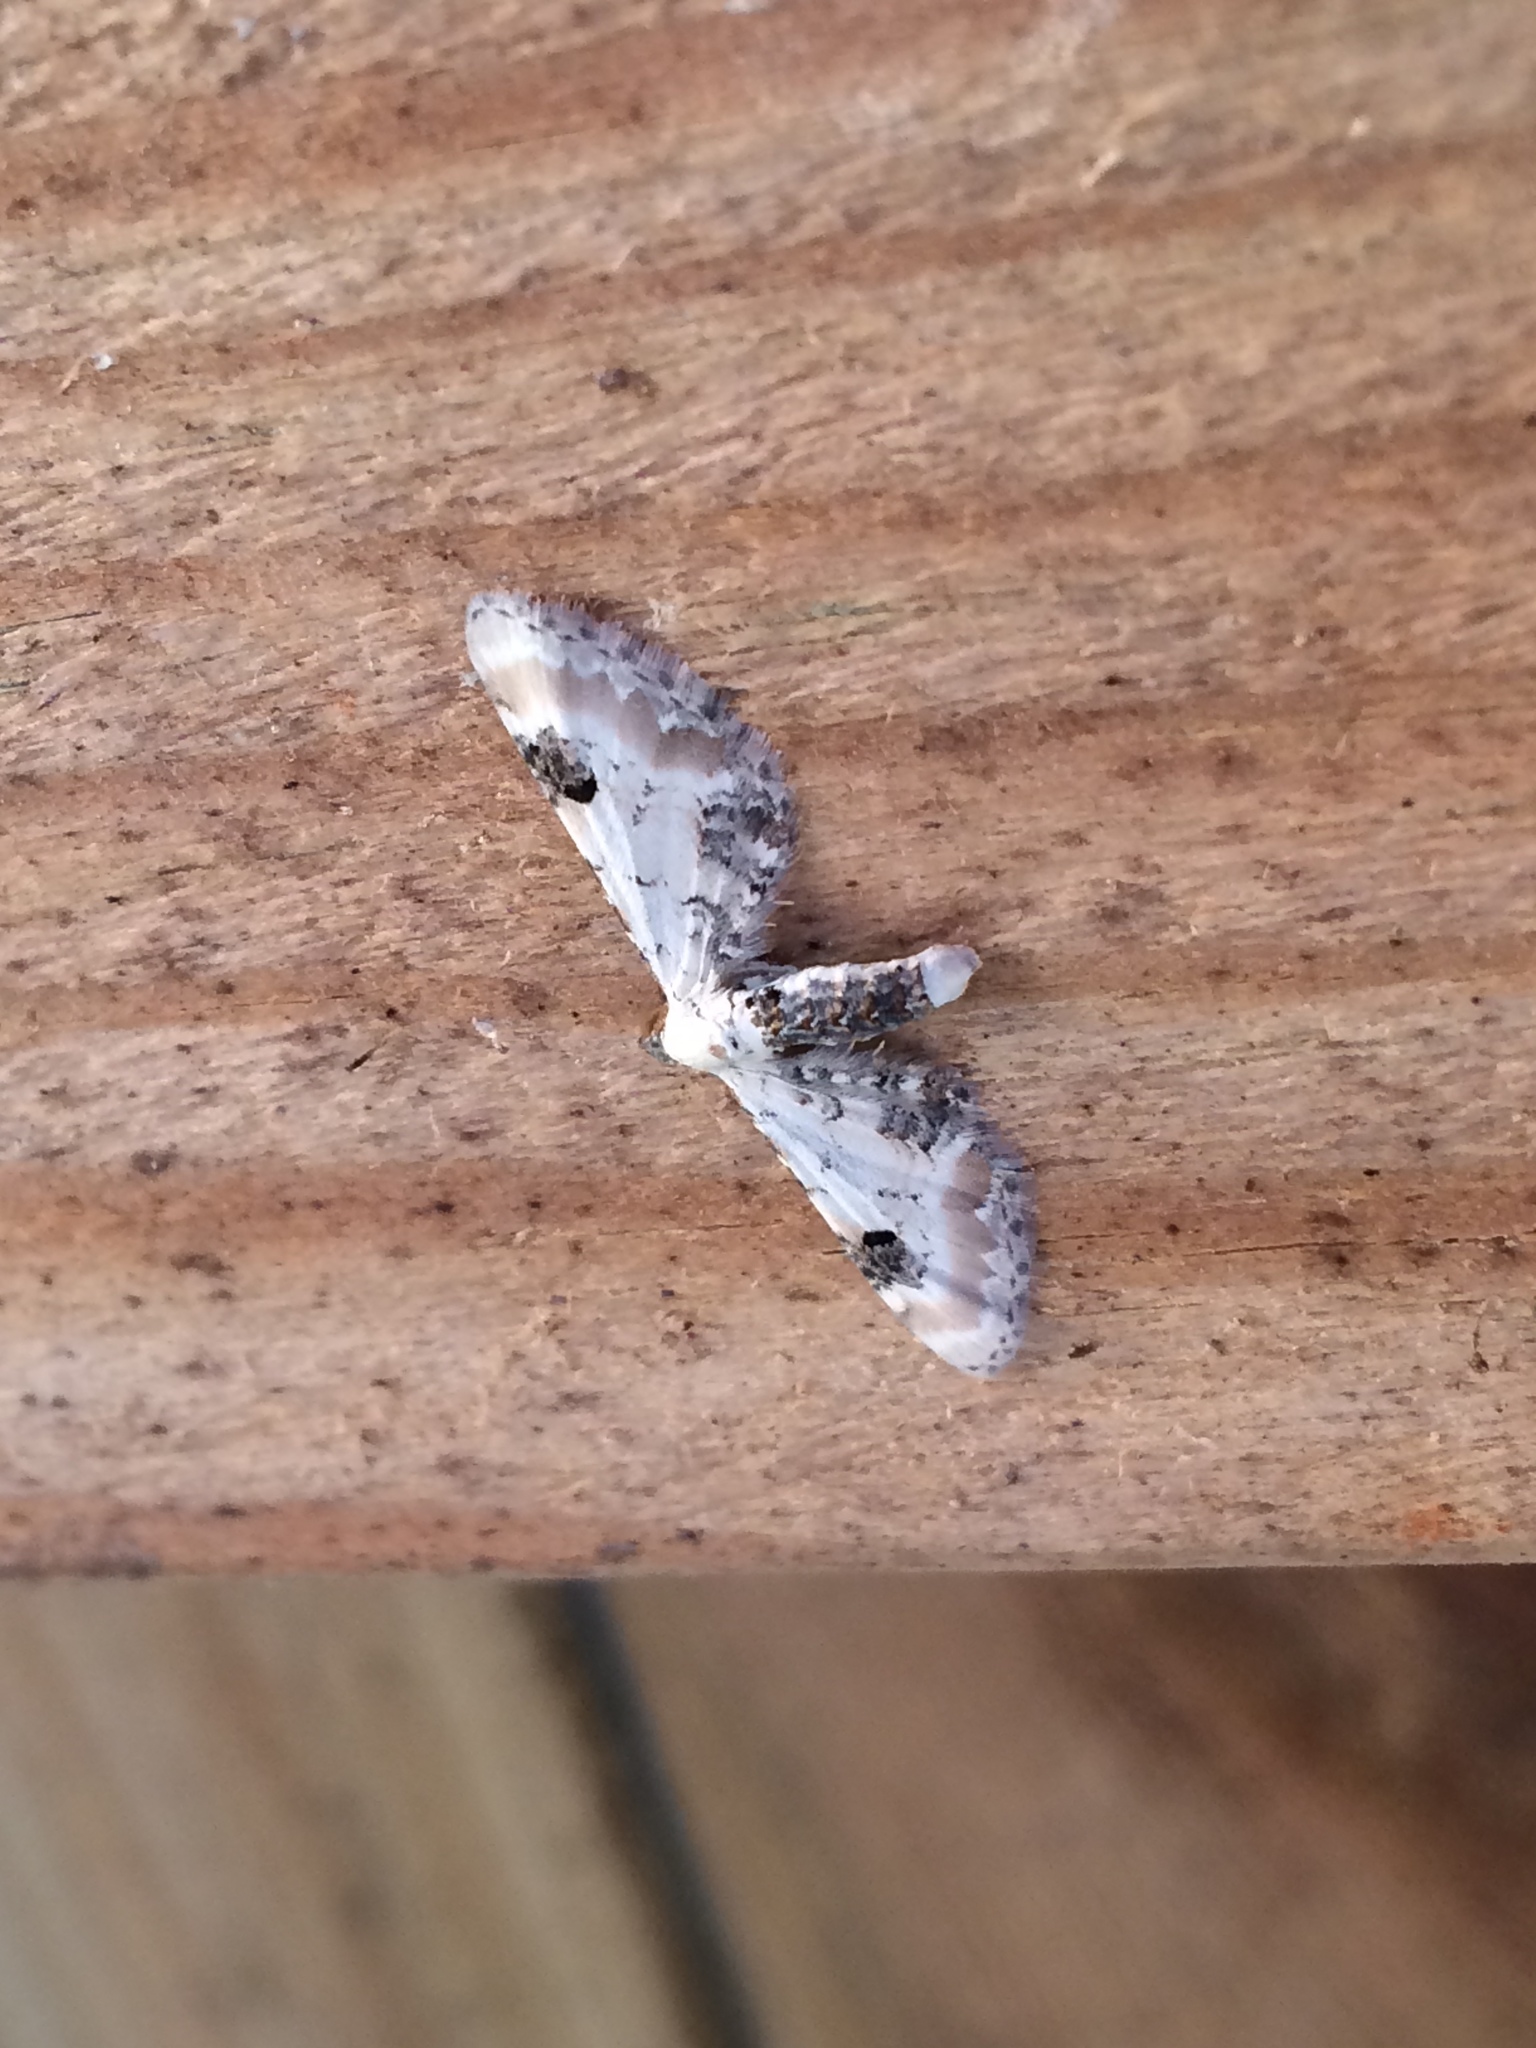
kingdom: Animalia
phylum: Arthropoda
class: Insecta
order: Lepidoptera
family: Geometridae
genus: Eupithecia
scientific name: Eupithecia centaureata
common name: Lime-speck pug
